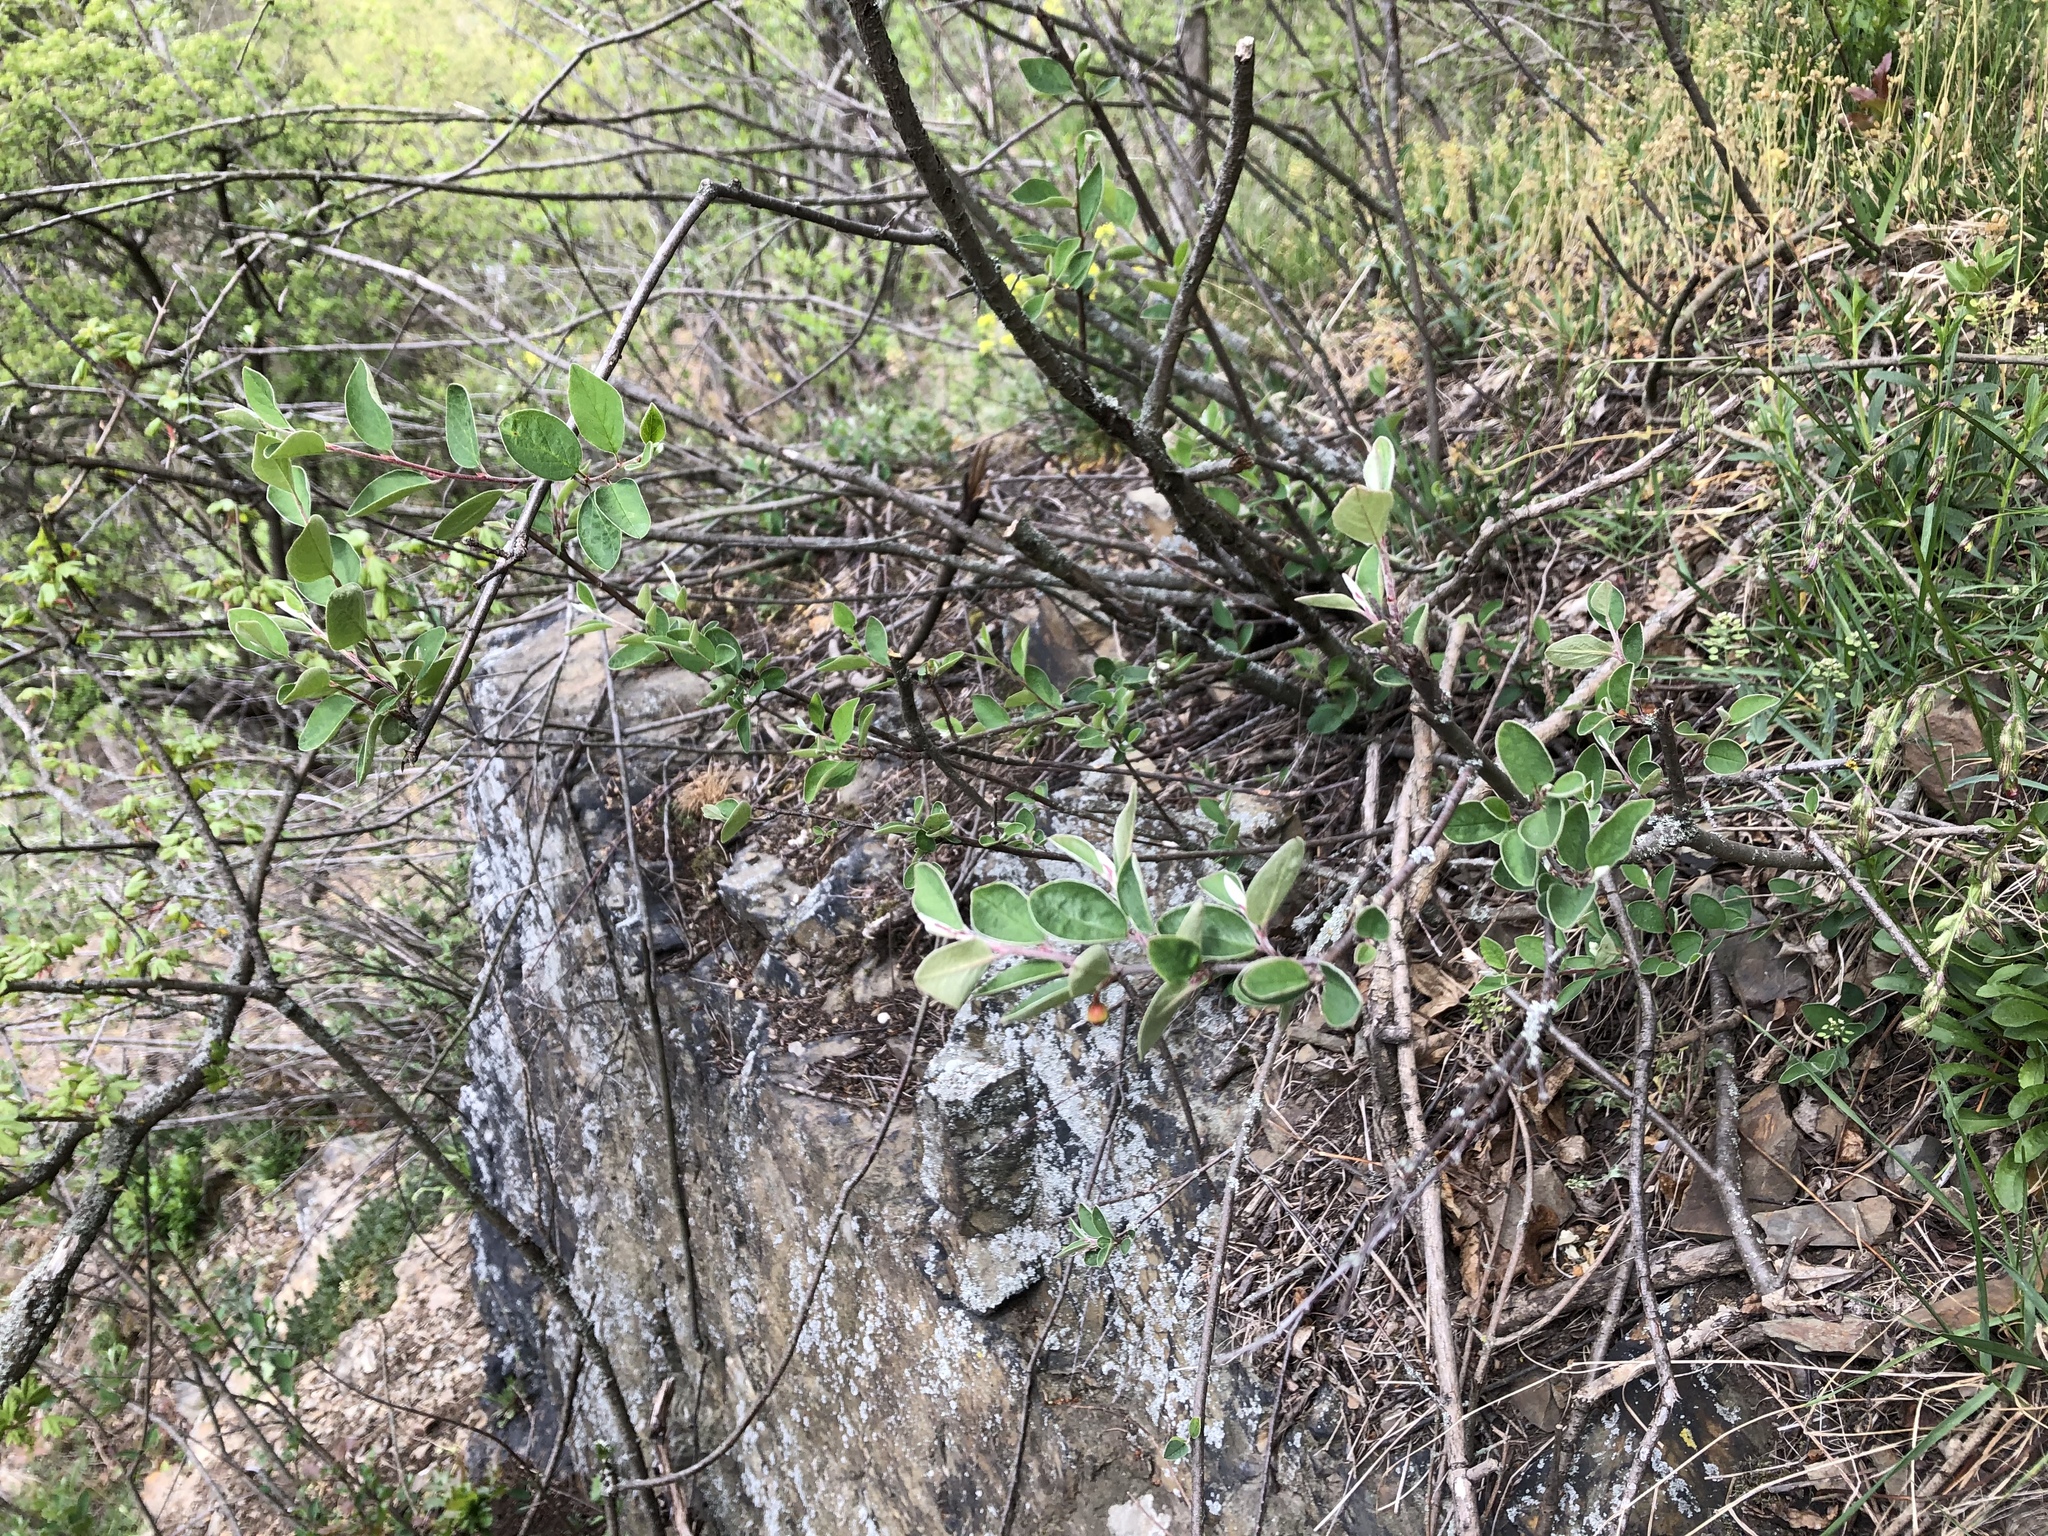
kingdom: Plantae
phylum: Tracheophyta
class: Magnoliopsida
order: Rosales
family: Rosaceae
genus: Cotoneaster
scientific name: Cotoneaster integerrimus
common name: Wild cotoneaster
